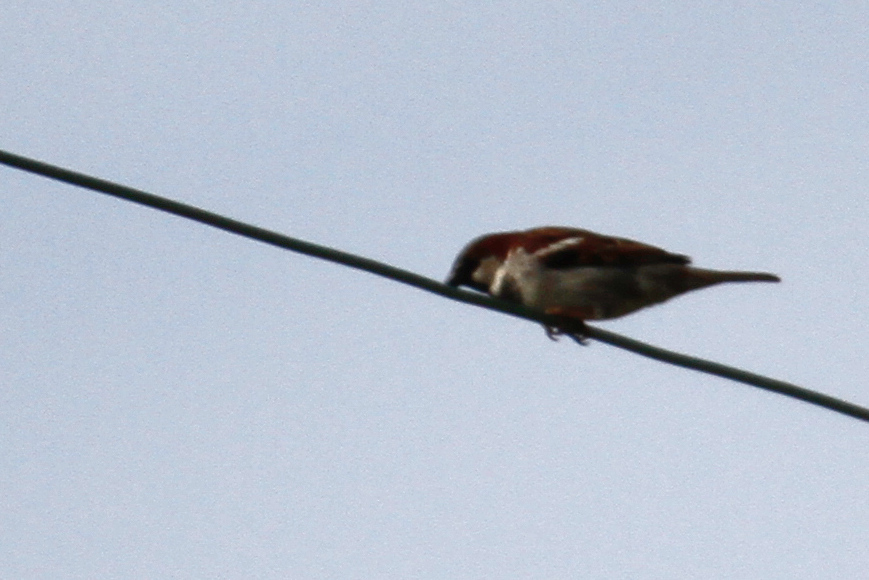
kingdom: Animalia
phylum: Chordata
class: Aves
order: Passeriformes
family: Passeridae
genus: Passer
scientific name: Passer domesticus
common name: House sparrow
